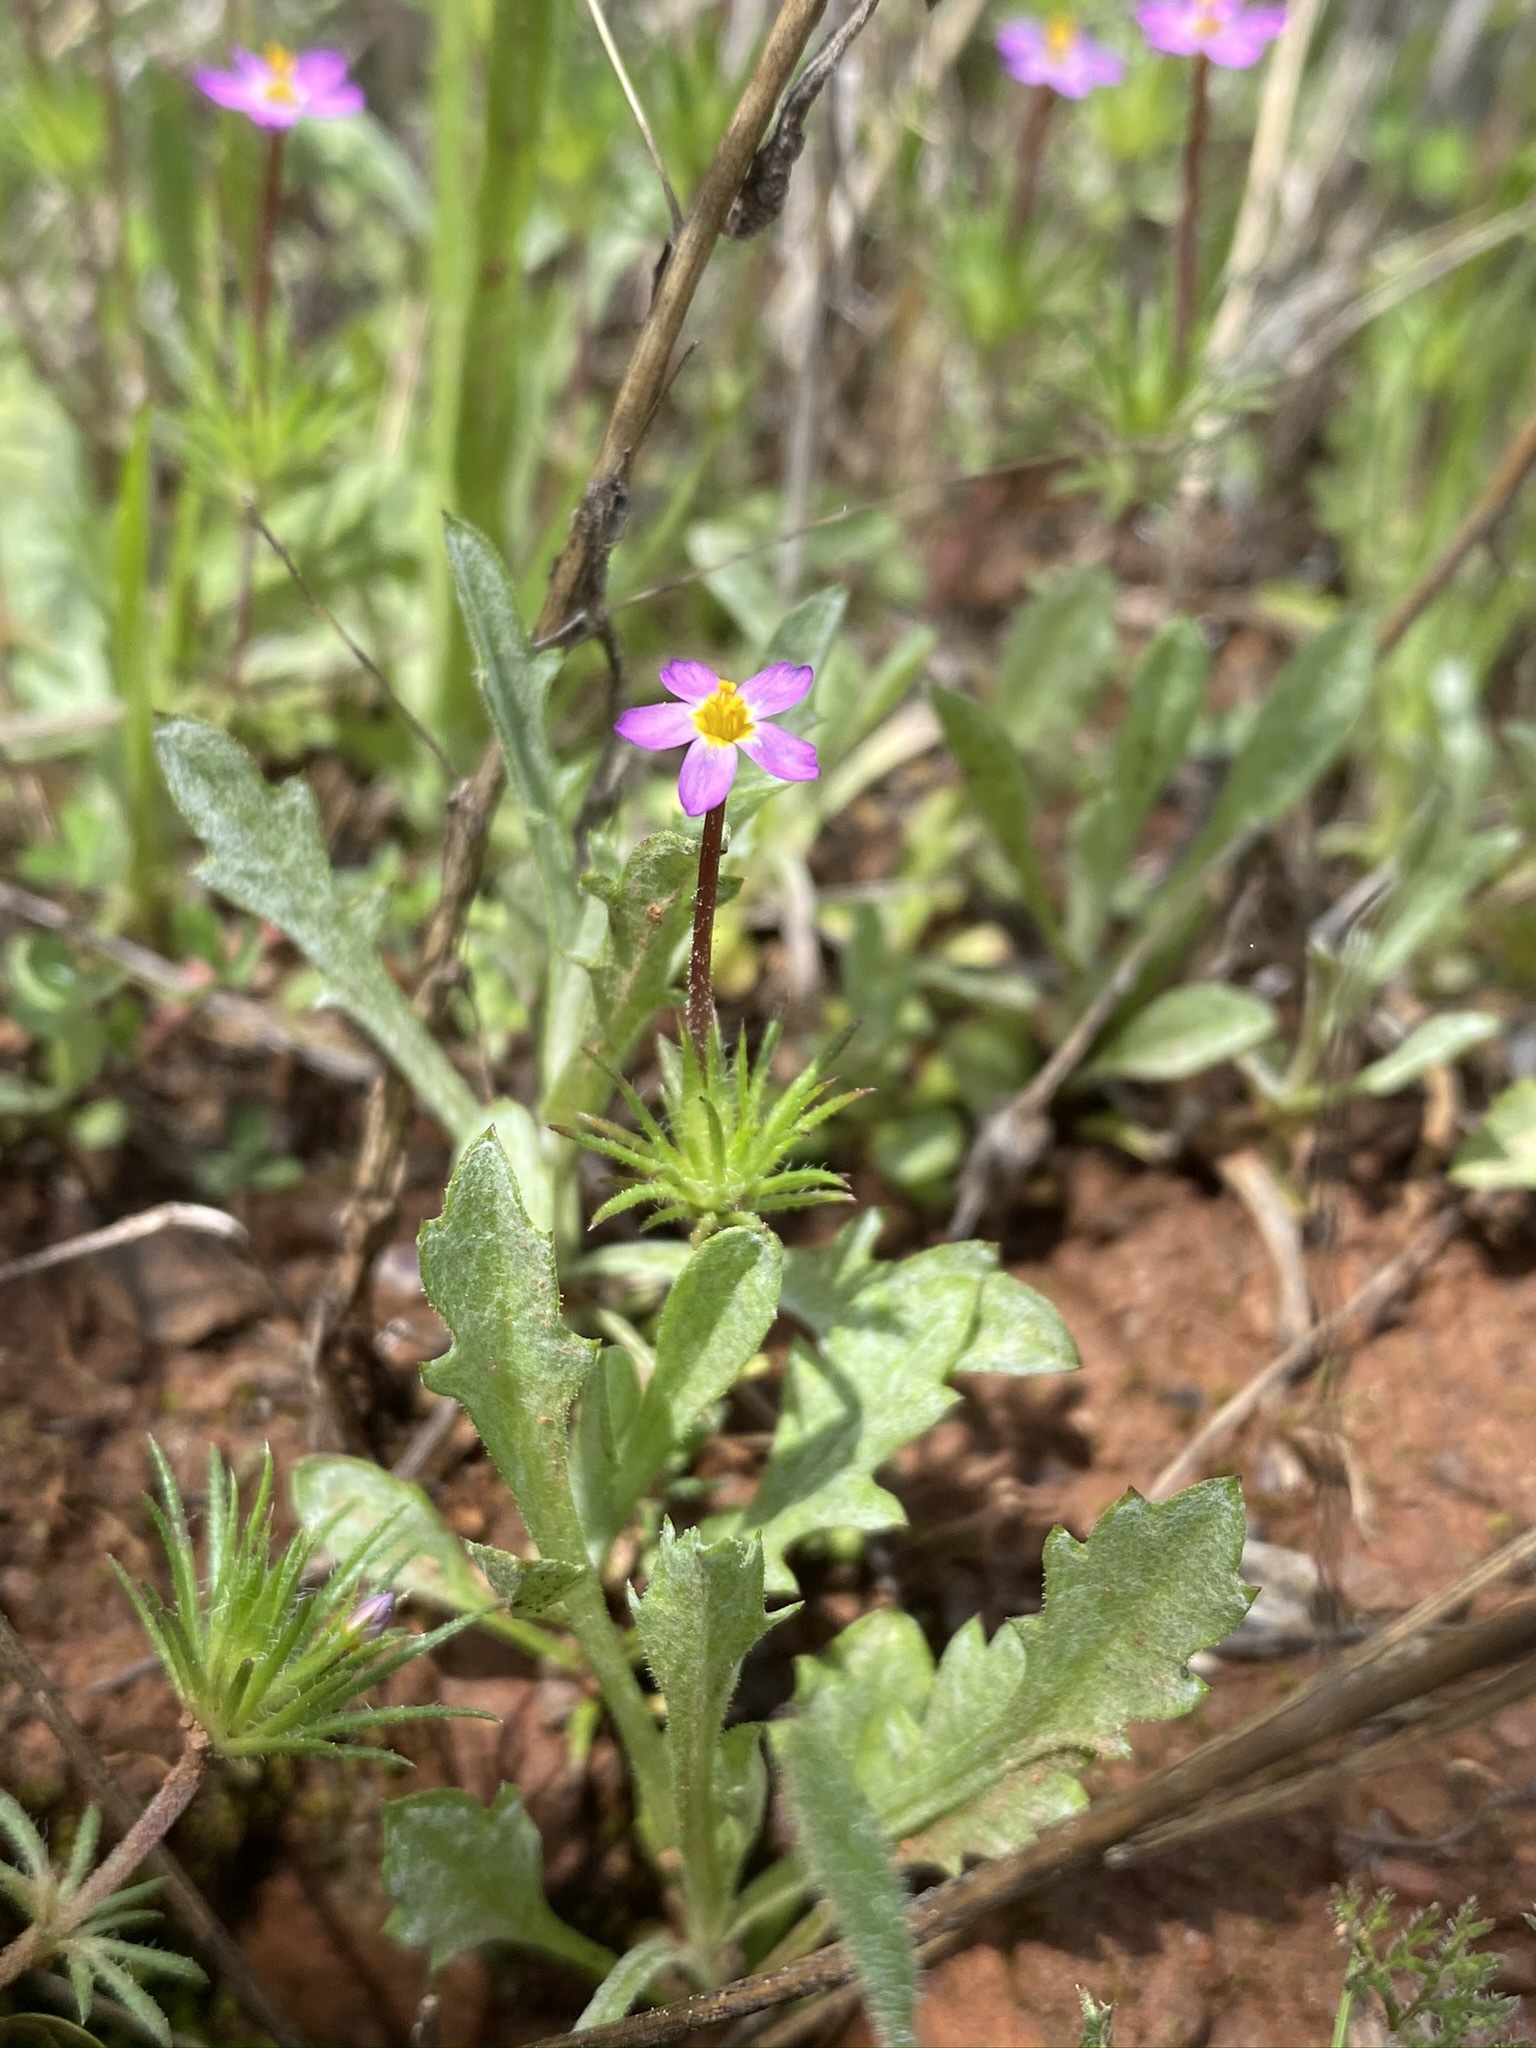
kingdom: Plantae
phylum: Tracheophyta
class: Magnoliopsida
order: Ericales
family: Polemoniaceae
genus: Leptosiphon
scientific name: Leptosiphon bicolor
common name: True babystars
